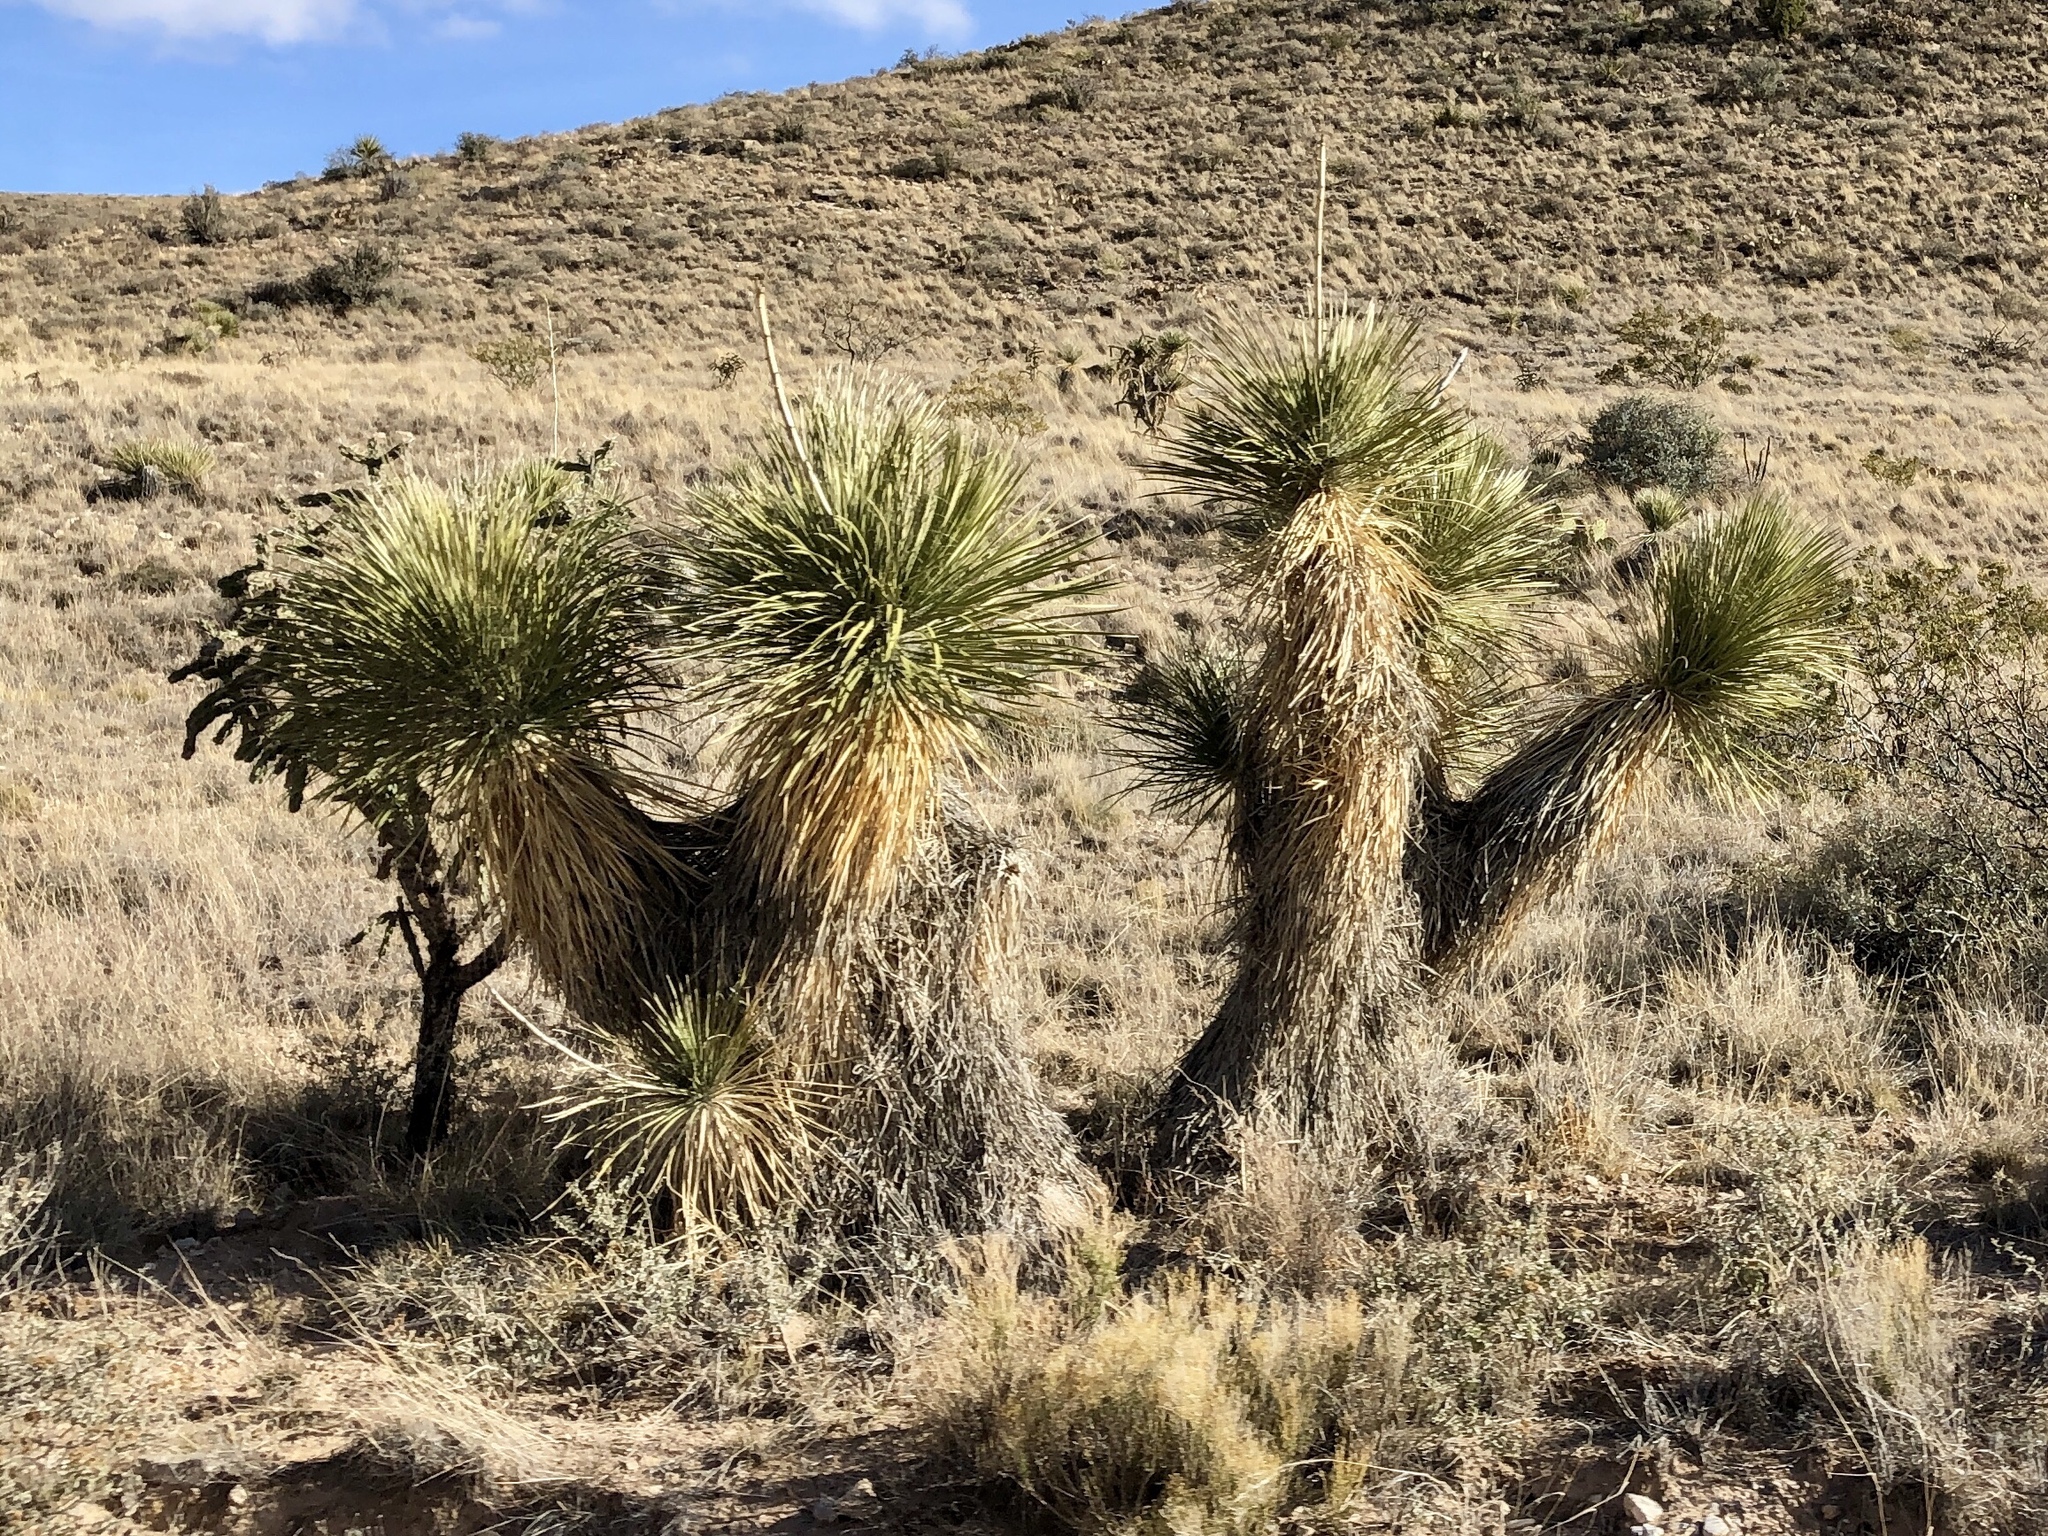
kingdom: Plantae
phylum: Tracheophyta
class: Liliopsida
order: Asparagales
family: Asparagaceae
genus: Yucca
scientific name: Yucca elata
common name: Palmella
